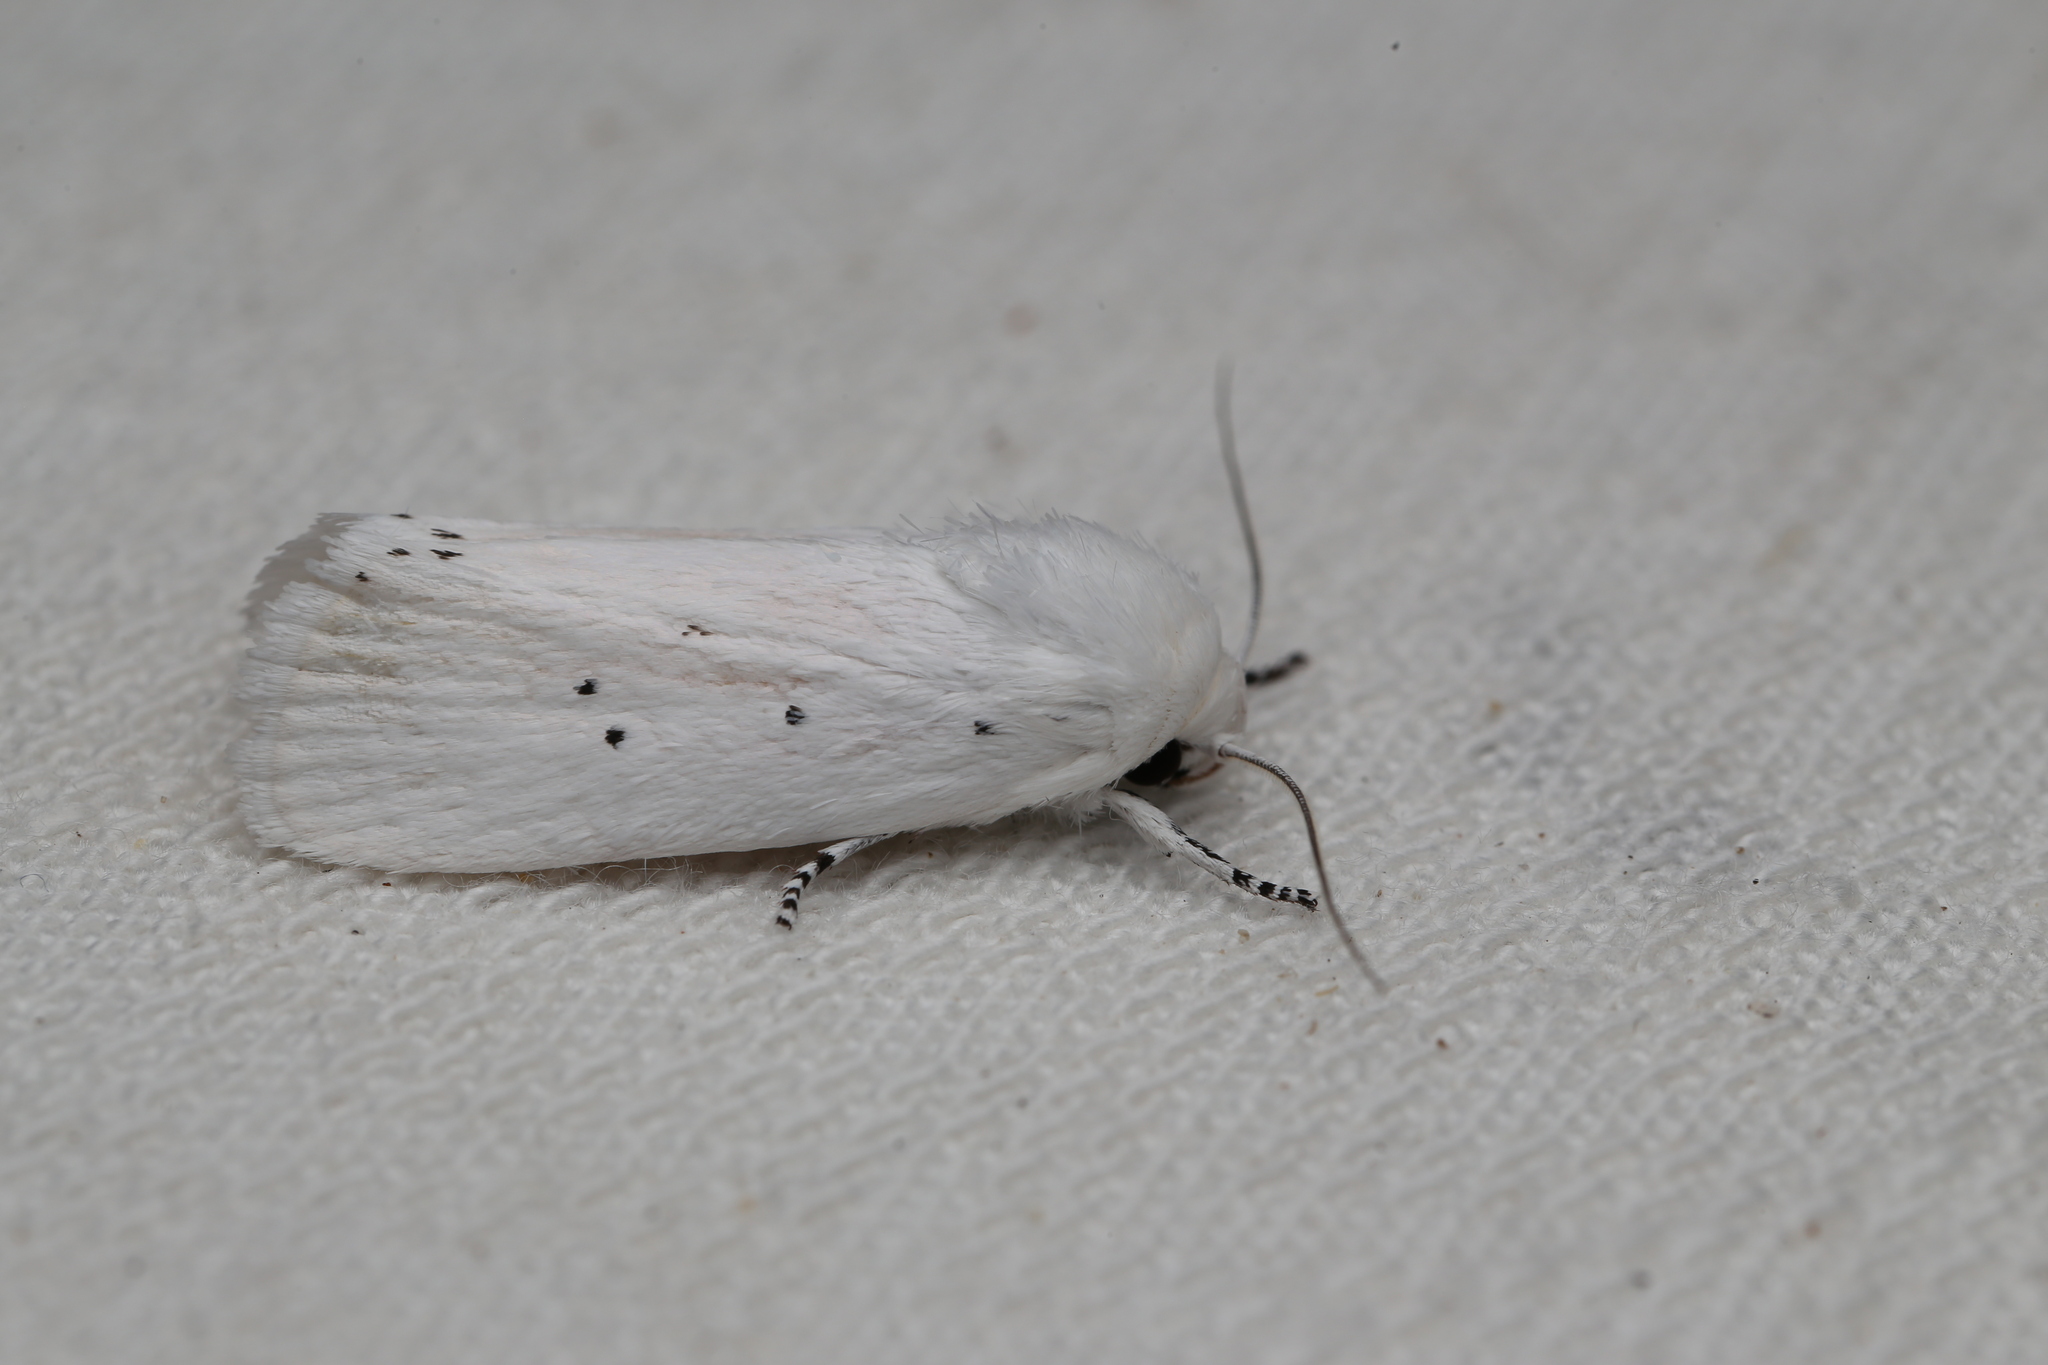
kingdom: Animalia
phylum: Arthropoda
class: Insecta
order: Lepidoptera
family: Xyloryctidae
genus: Cryptophasa
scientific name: Cryptophasa lasiocosma
